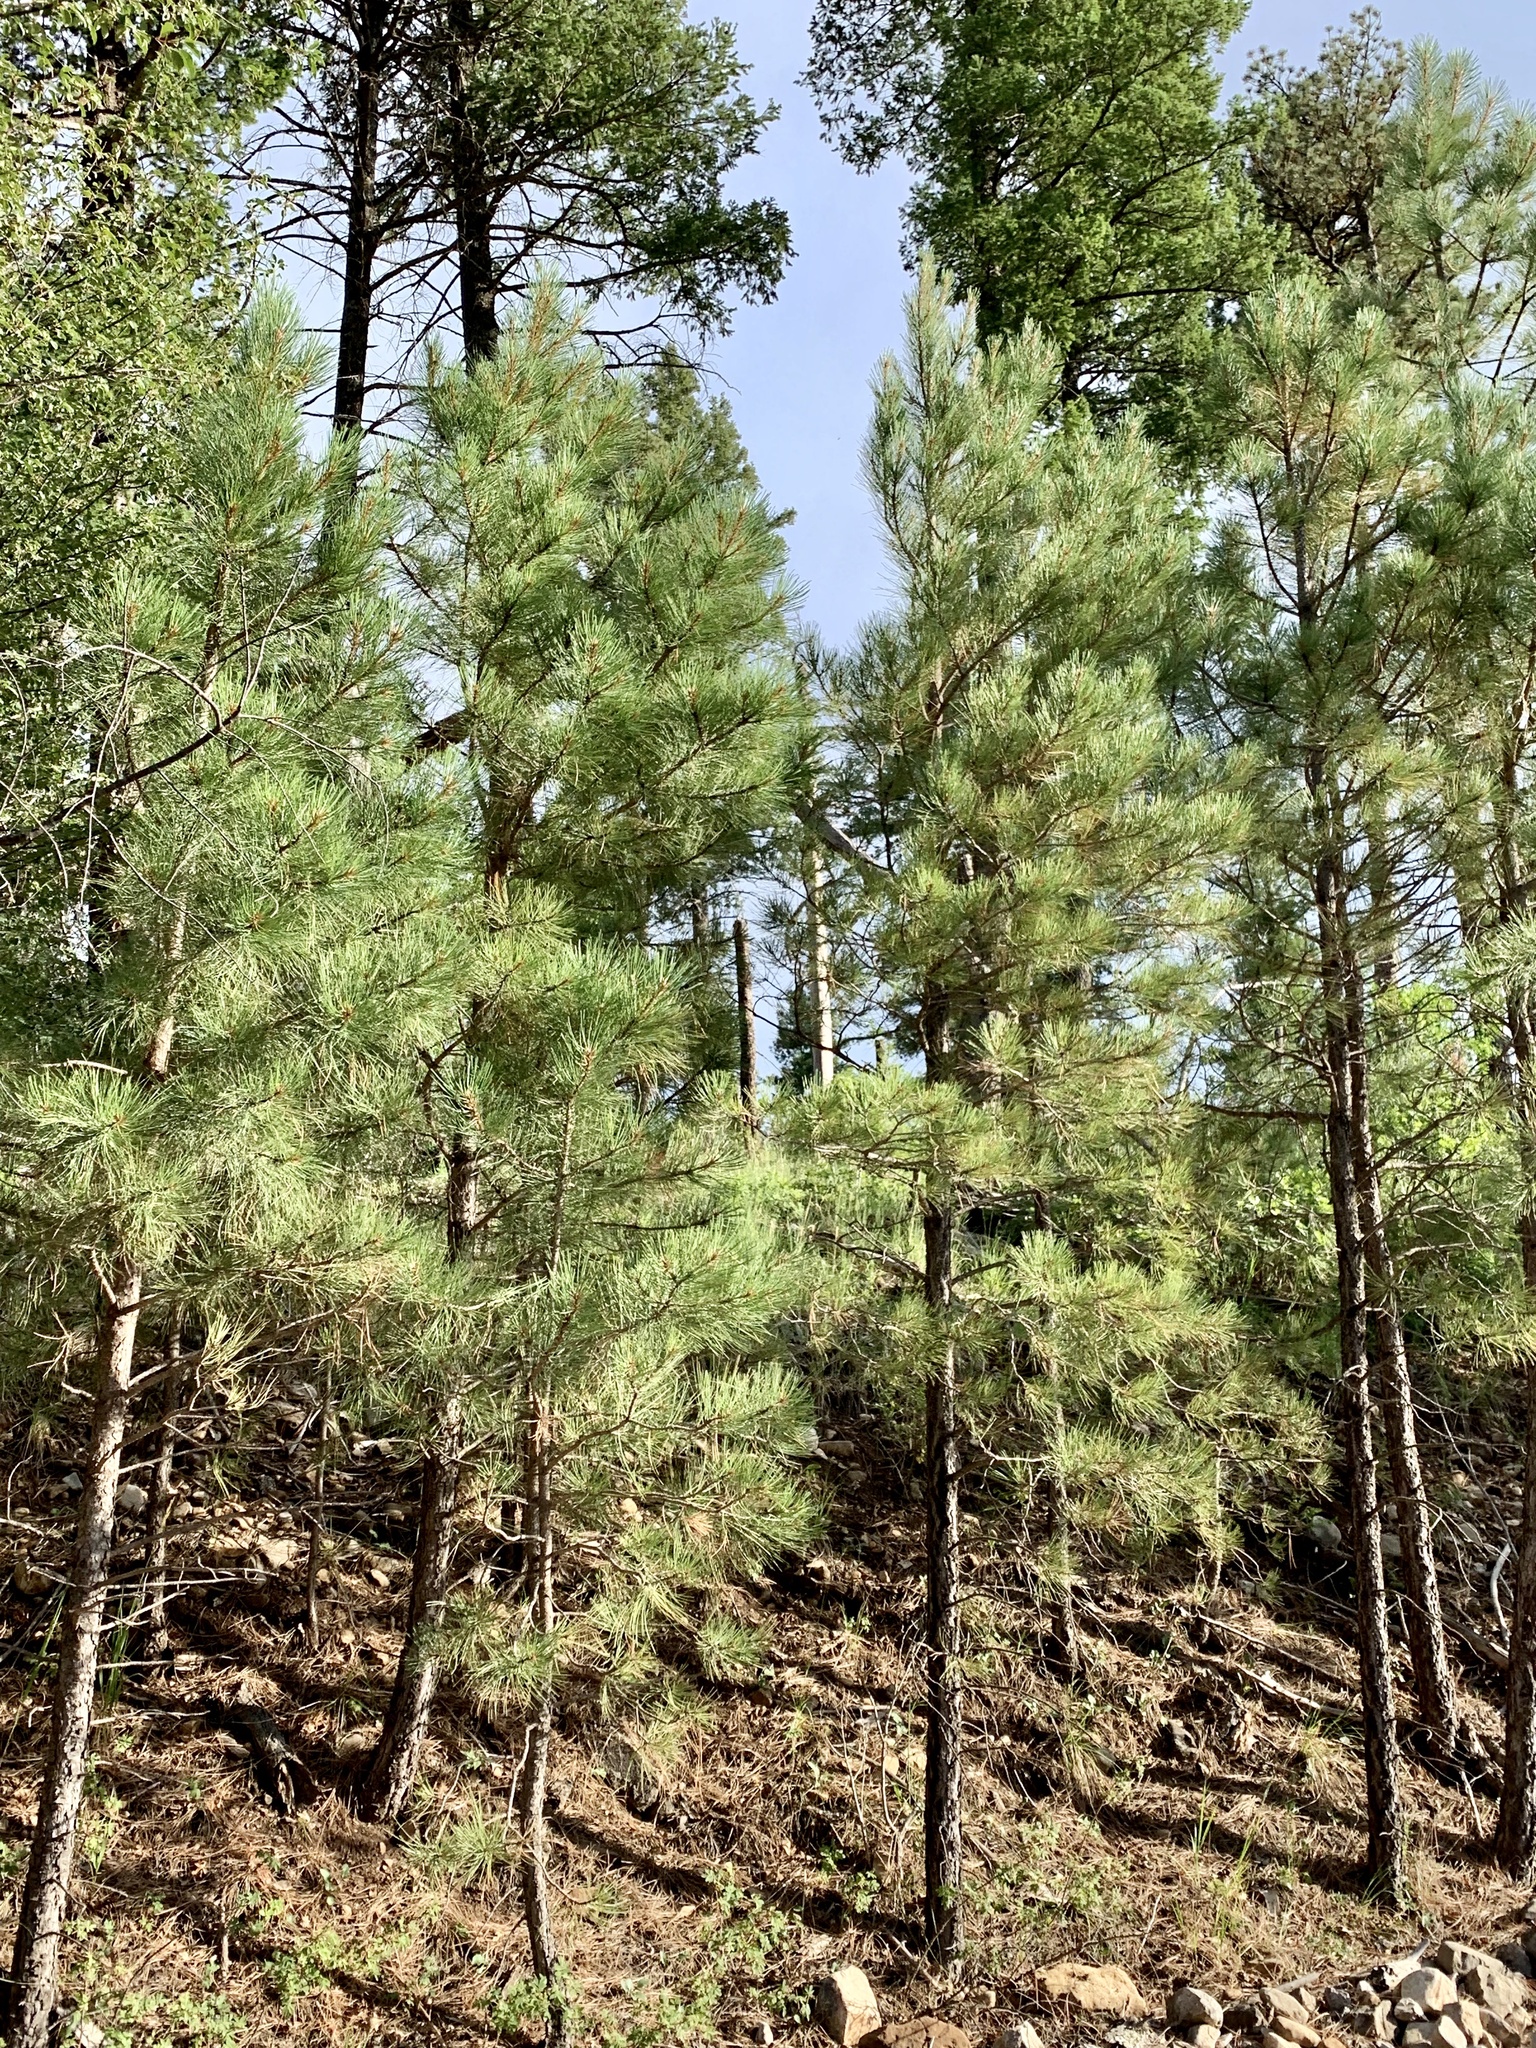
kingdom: Plantae
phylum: Tracheophyta
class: Pinopsida
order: Pinales
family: Pinaceae
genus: Pinus
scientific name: Pinus ponderosa
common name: Western yellow-pine
